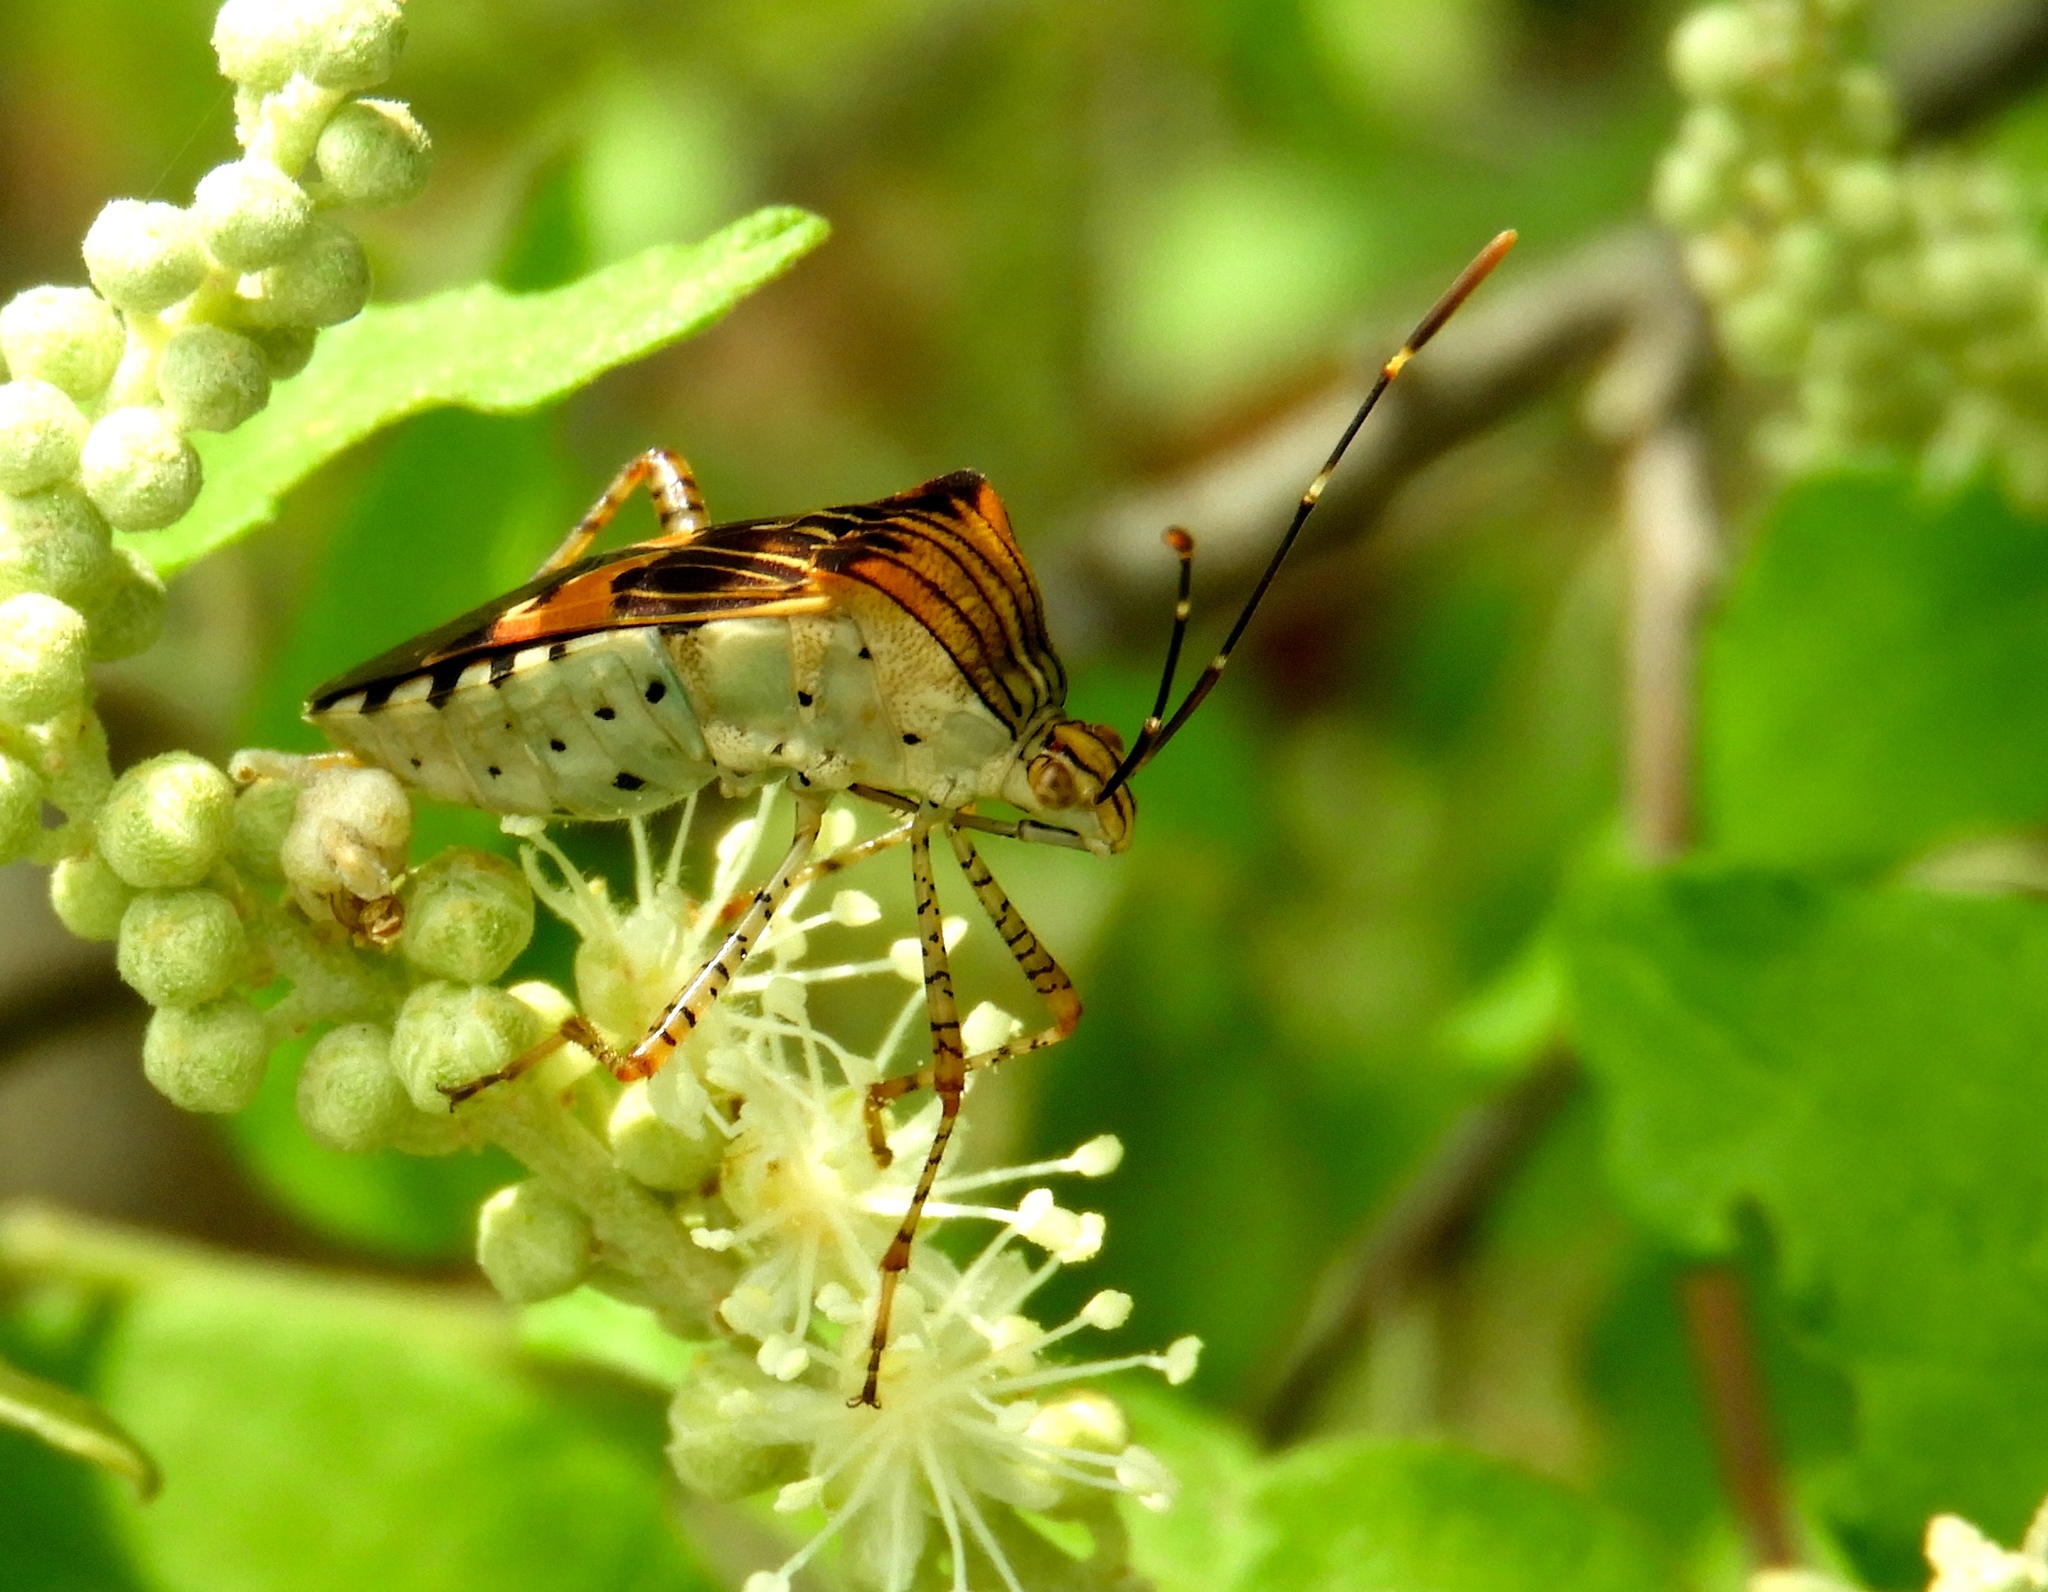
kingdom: Animalia
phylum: Arthropoda
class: Insecta
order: Hemiptera
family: Coreidae
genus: Hypselonotus
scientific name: Hypselonotus punctiventris
